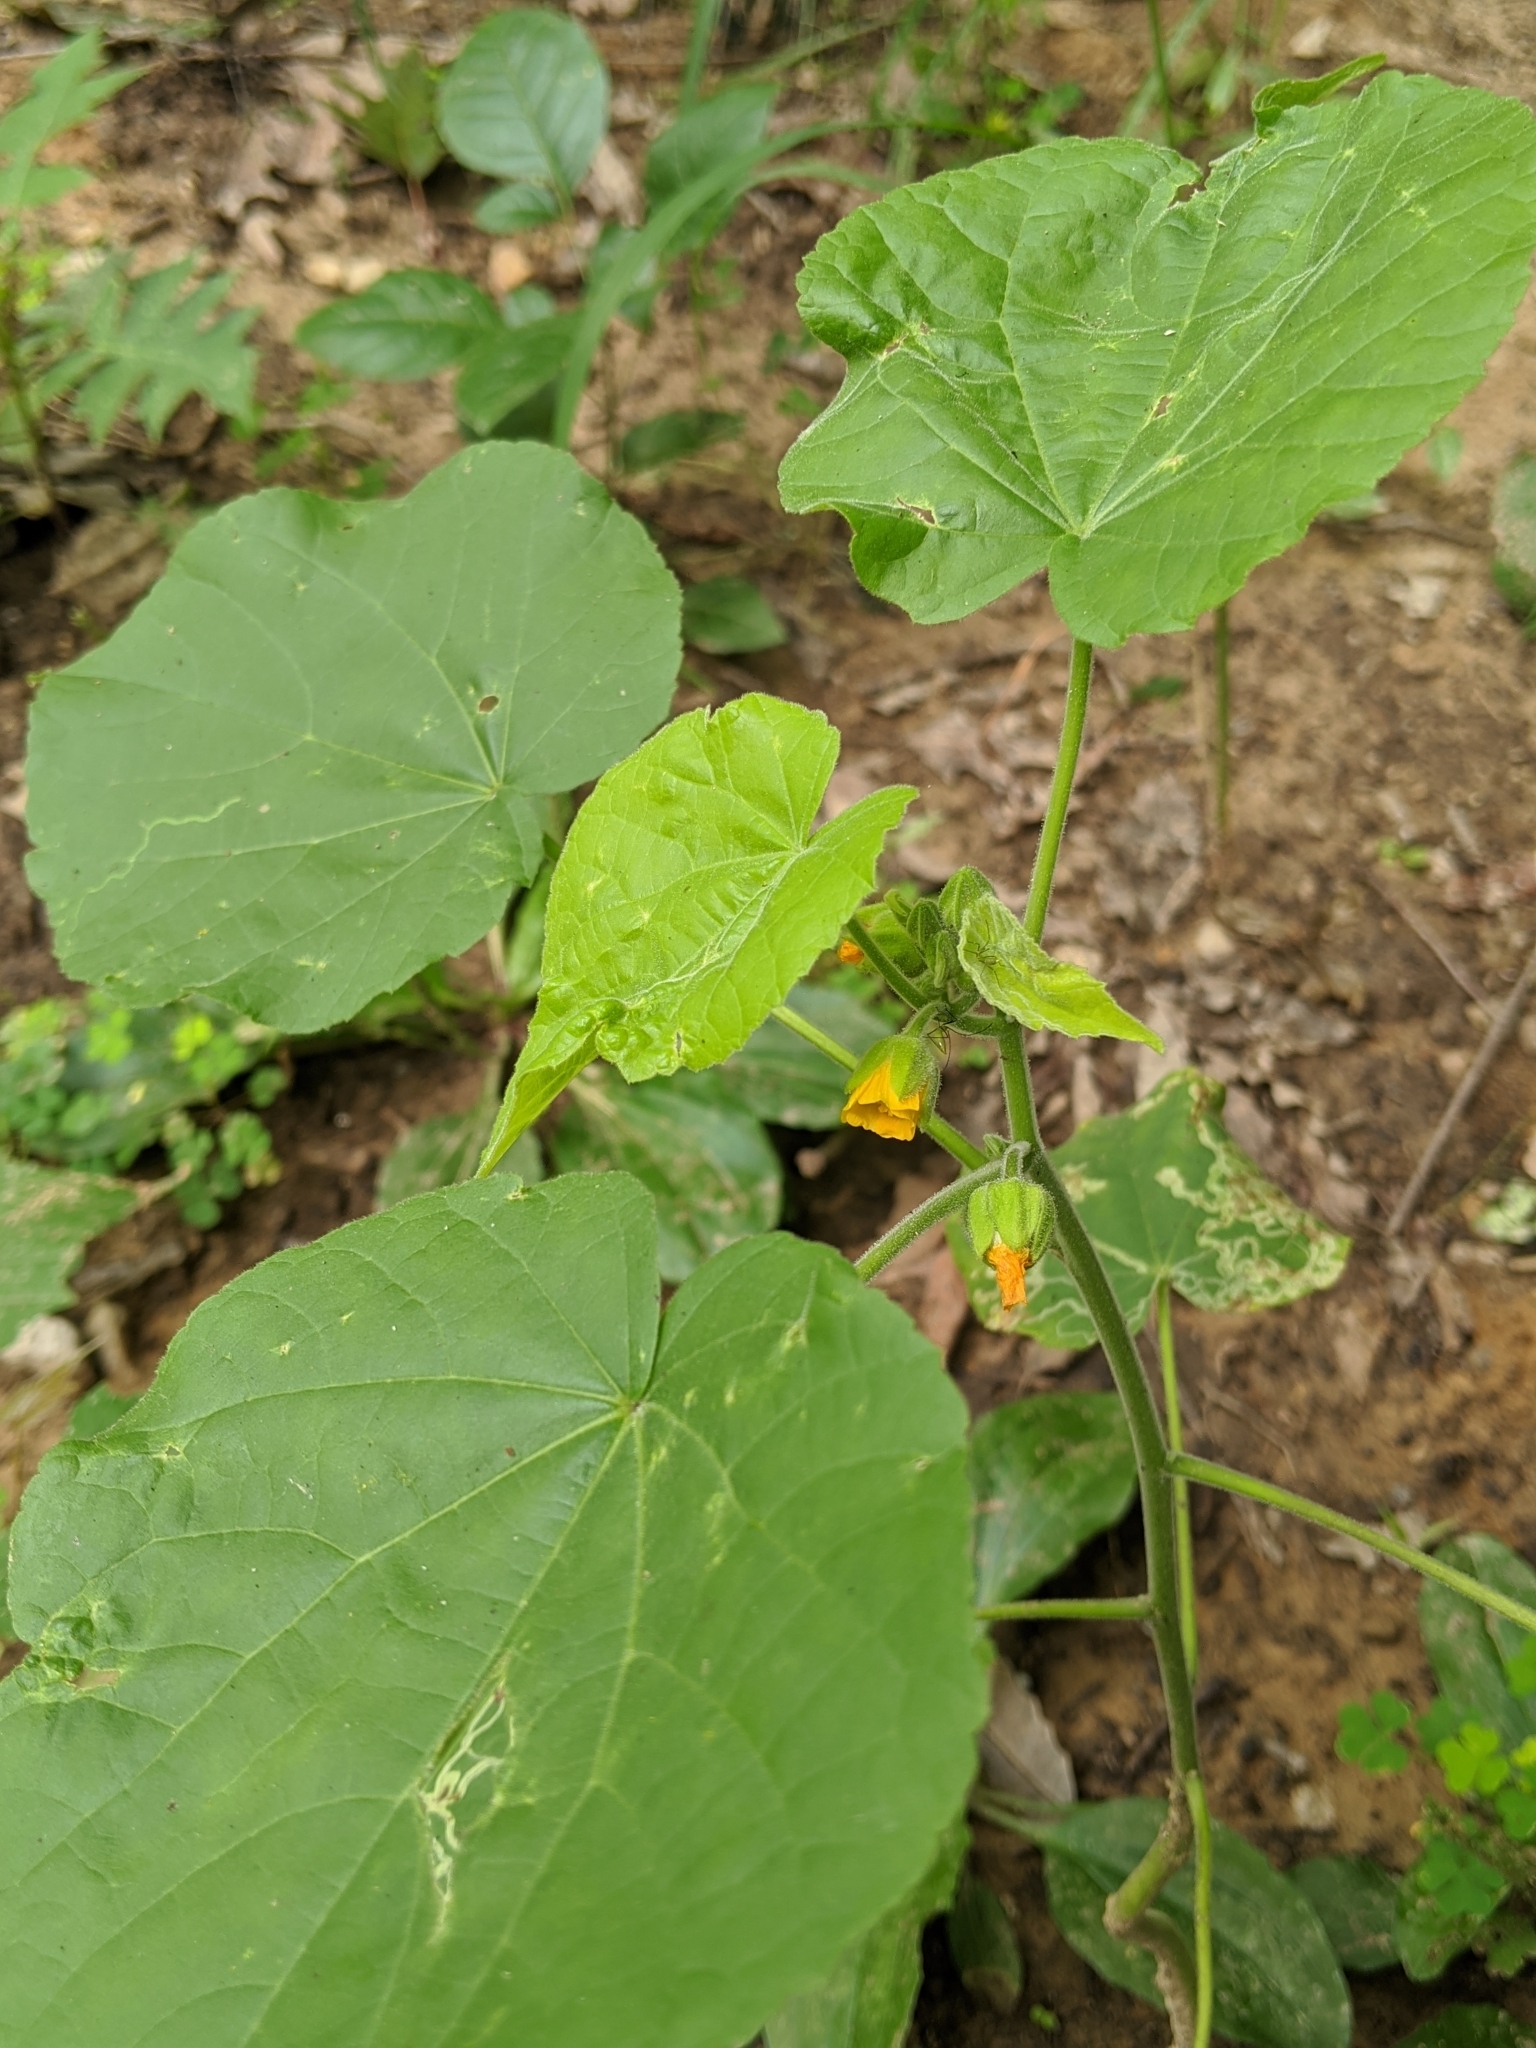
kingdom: Plantae
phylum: Tracheophyta
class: Magnoliopsida
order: Malvales
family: Malvaceae
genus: Abutilon
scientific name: Abutilon theophrasti
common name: Velvetleaf
